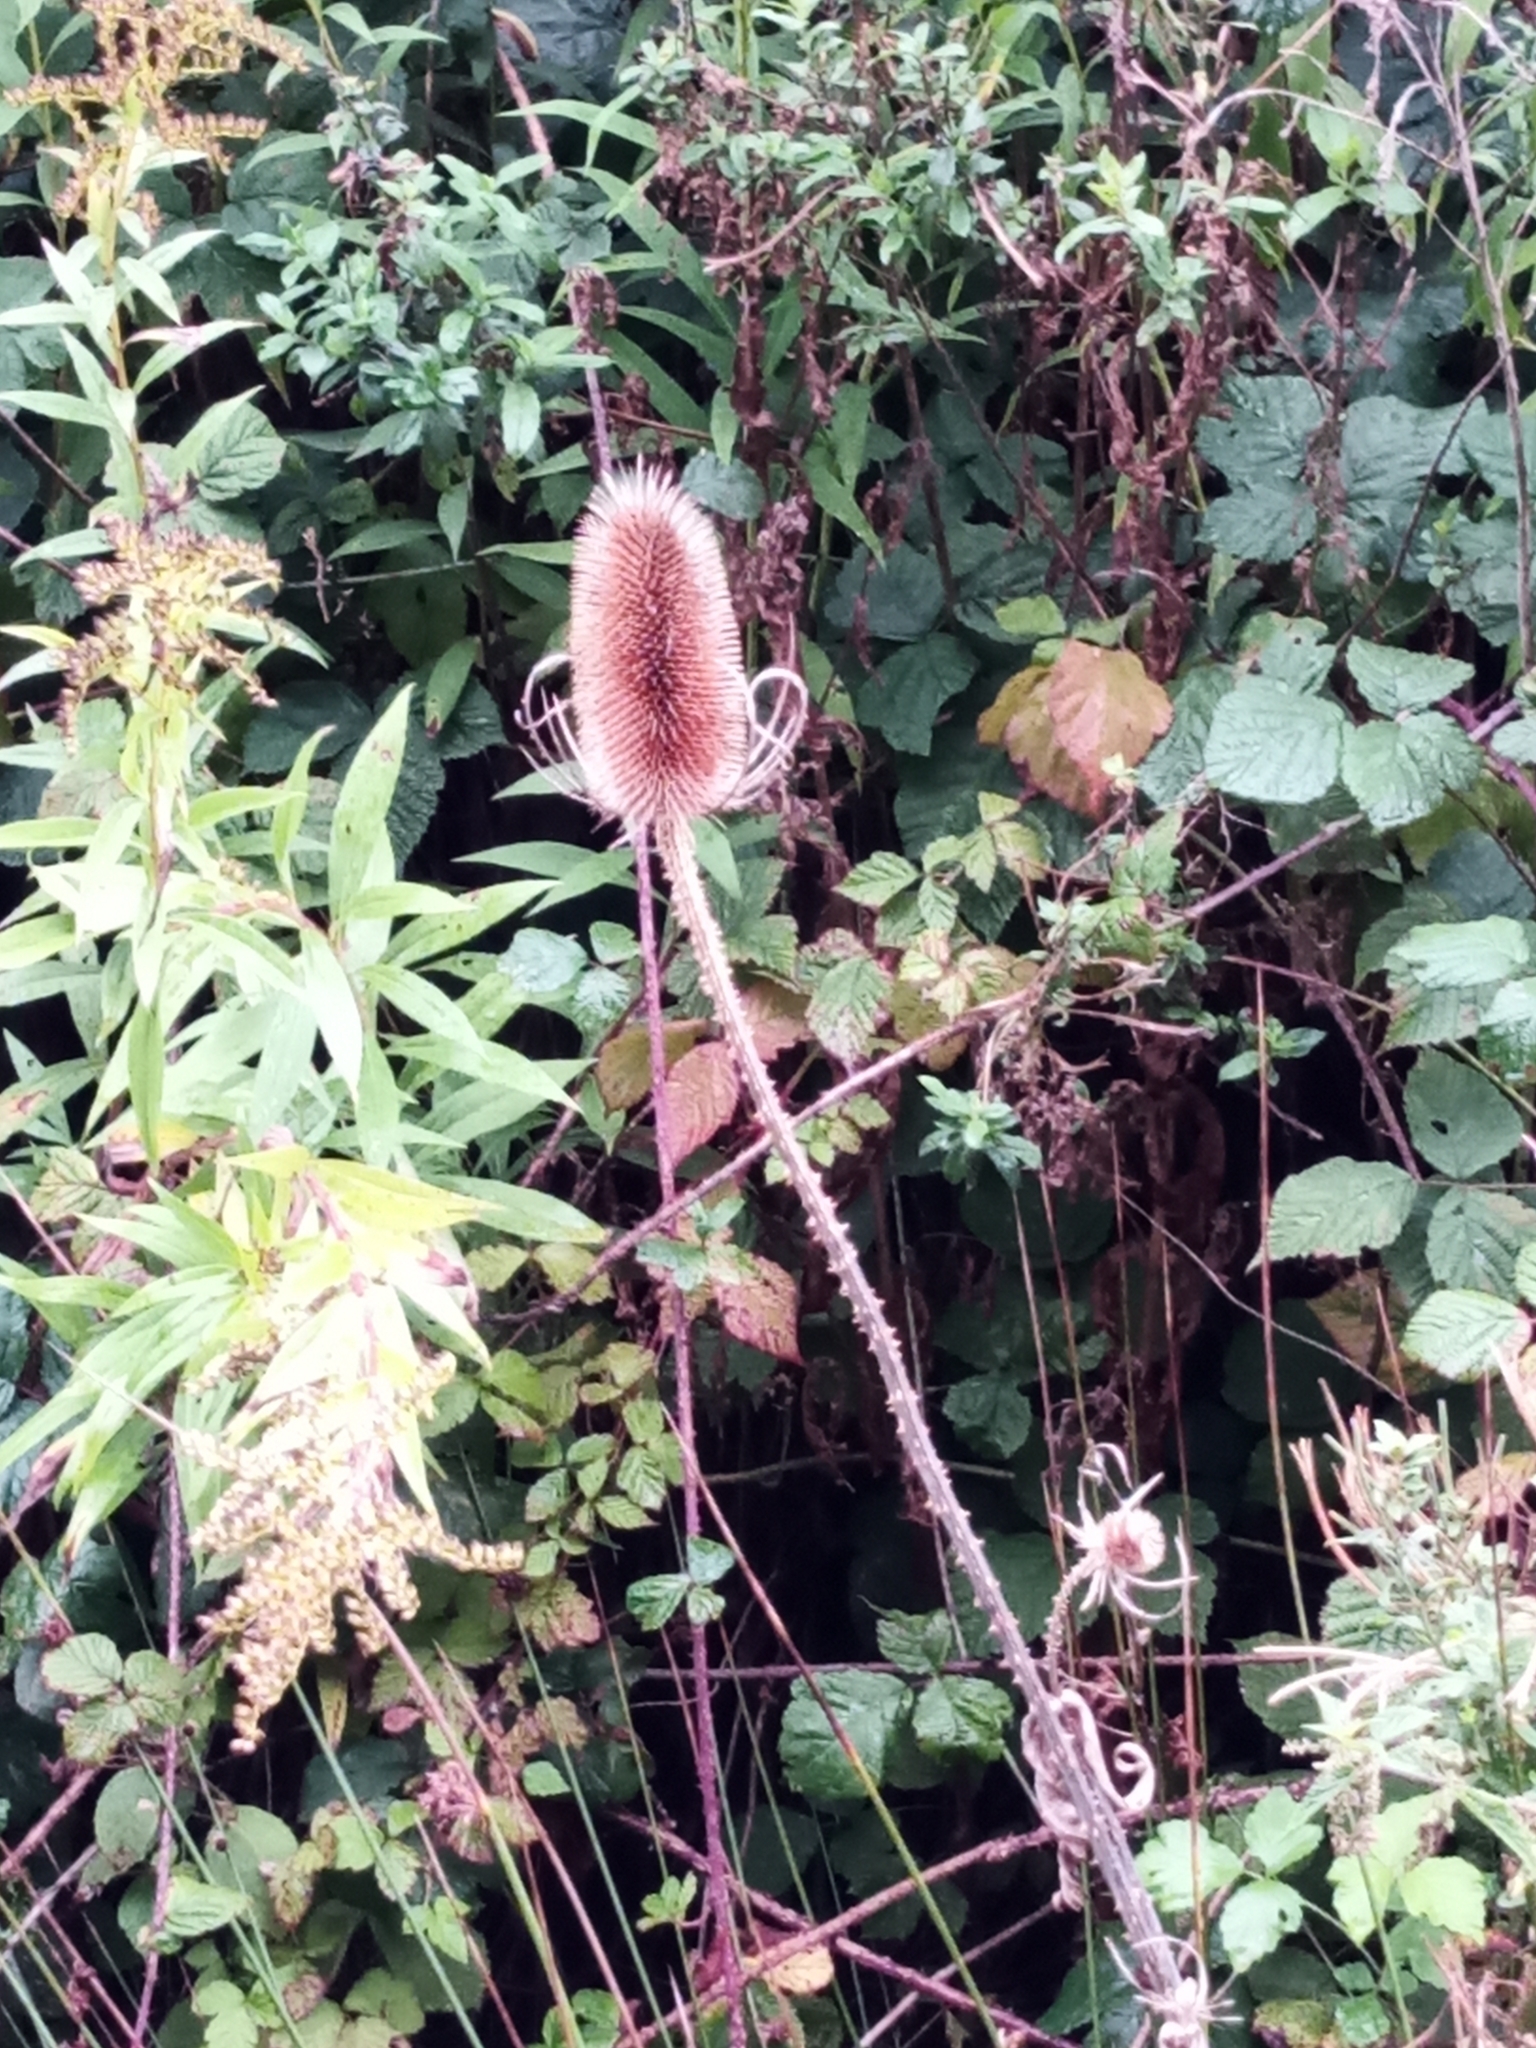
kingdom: Plantae
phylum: Tracheophyta
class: Magnoliopsida
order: Dipsacales
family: Caprifoliaceae
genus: Dipsacus
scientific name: Dipsacus fullonum
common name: Teasel
